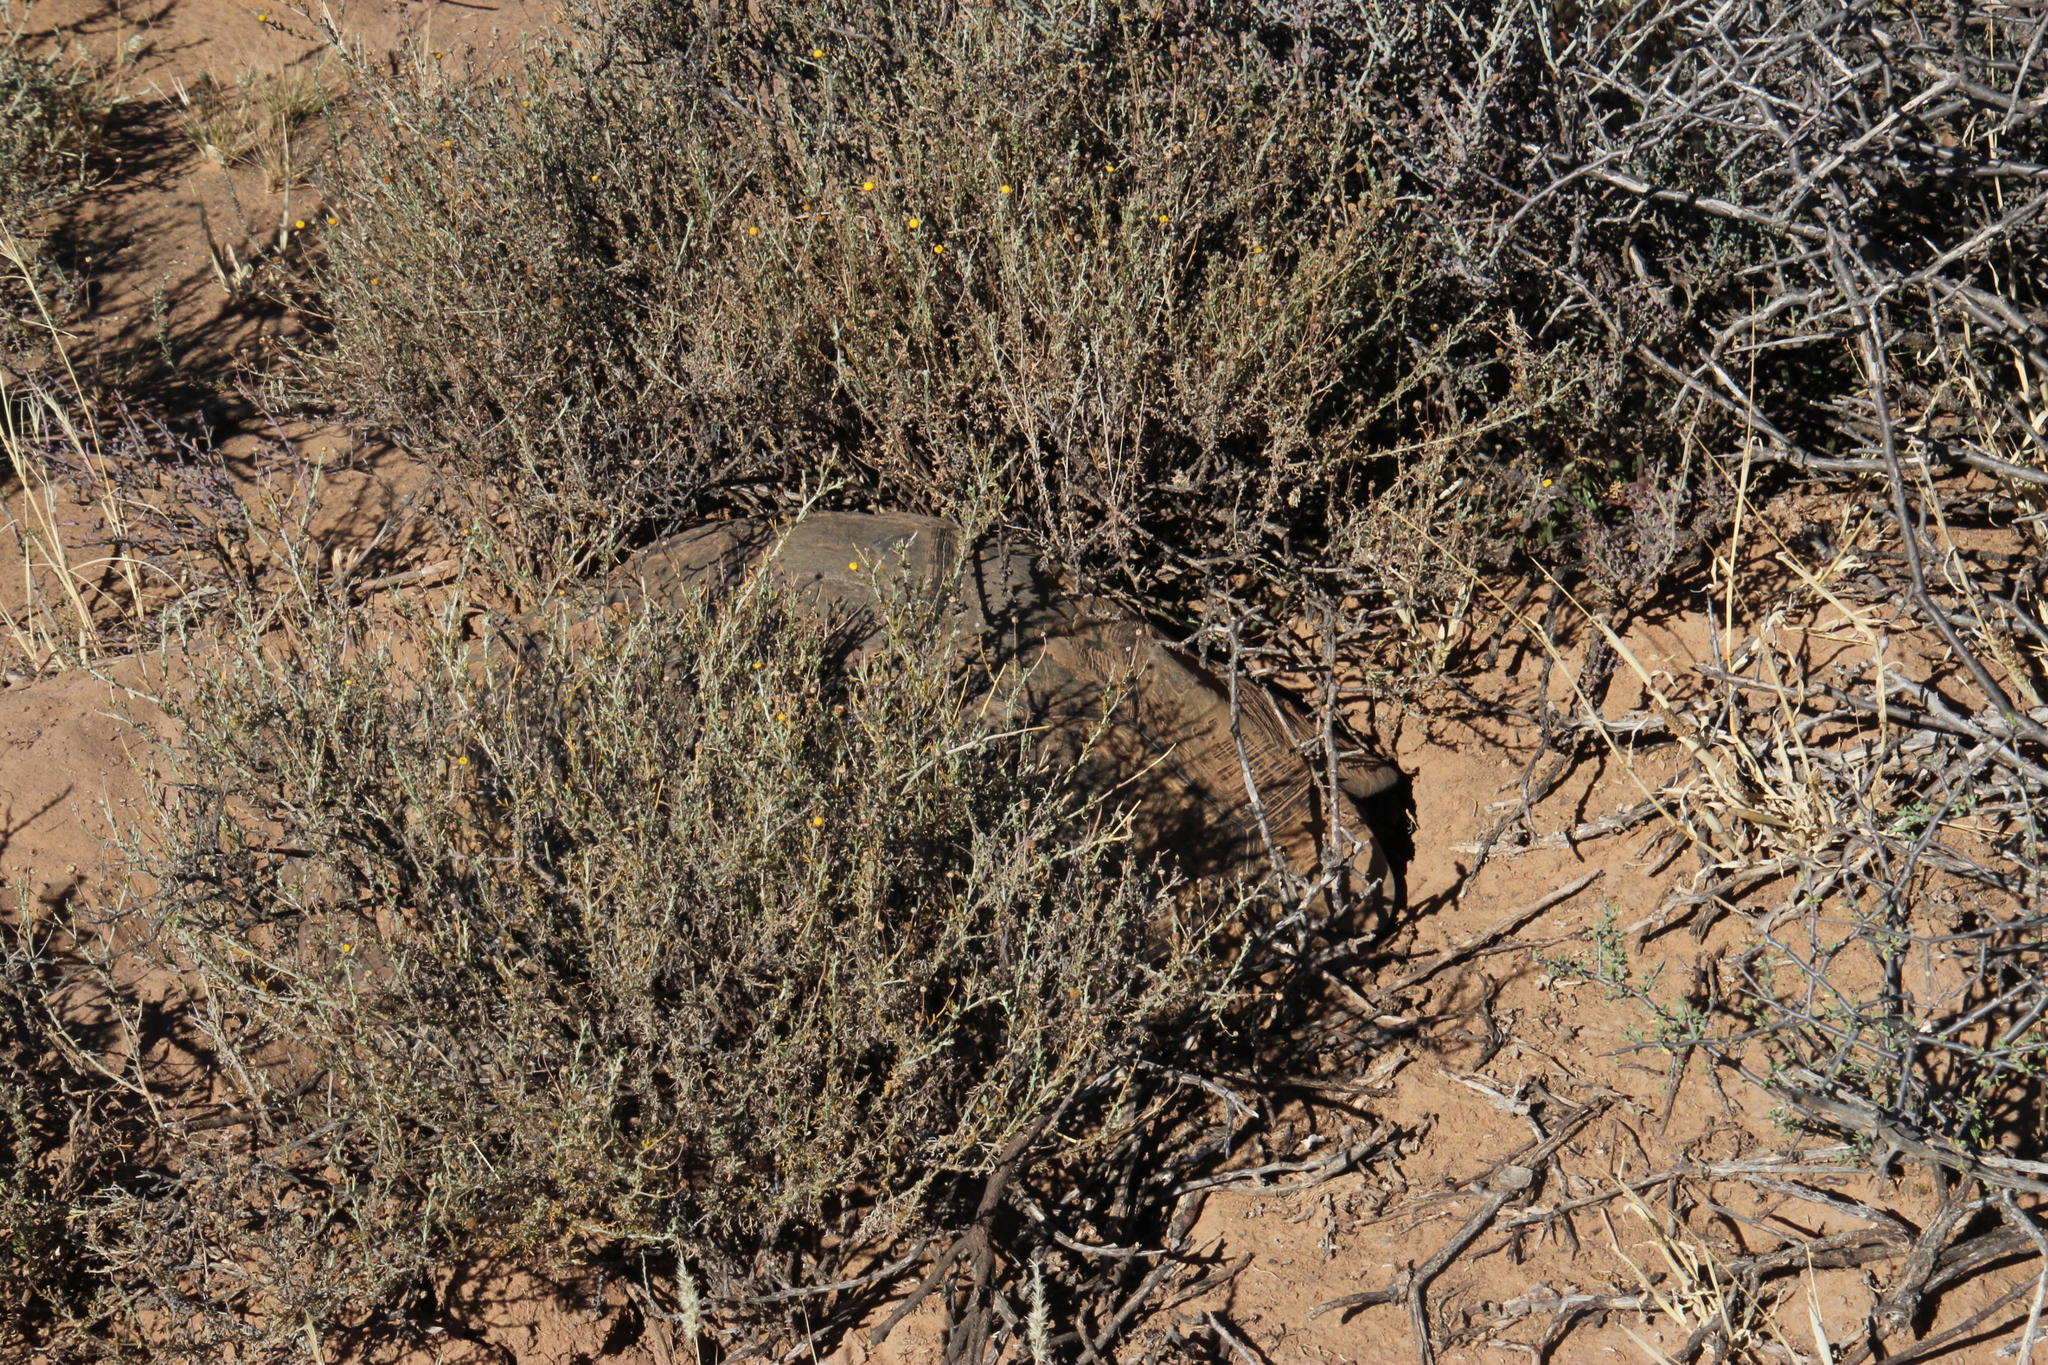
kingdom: Animalia
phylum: Chordata
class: Testudines
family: Testudinidae
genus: Stigmochelys
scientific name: Stigmochelys pardalis
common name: Leopard tortoise
